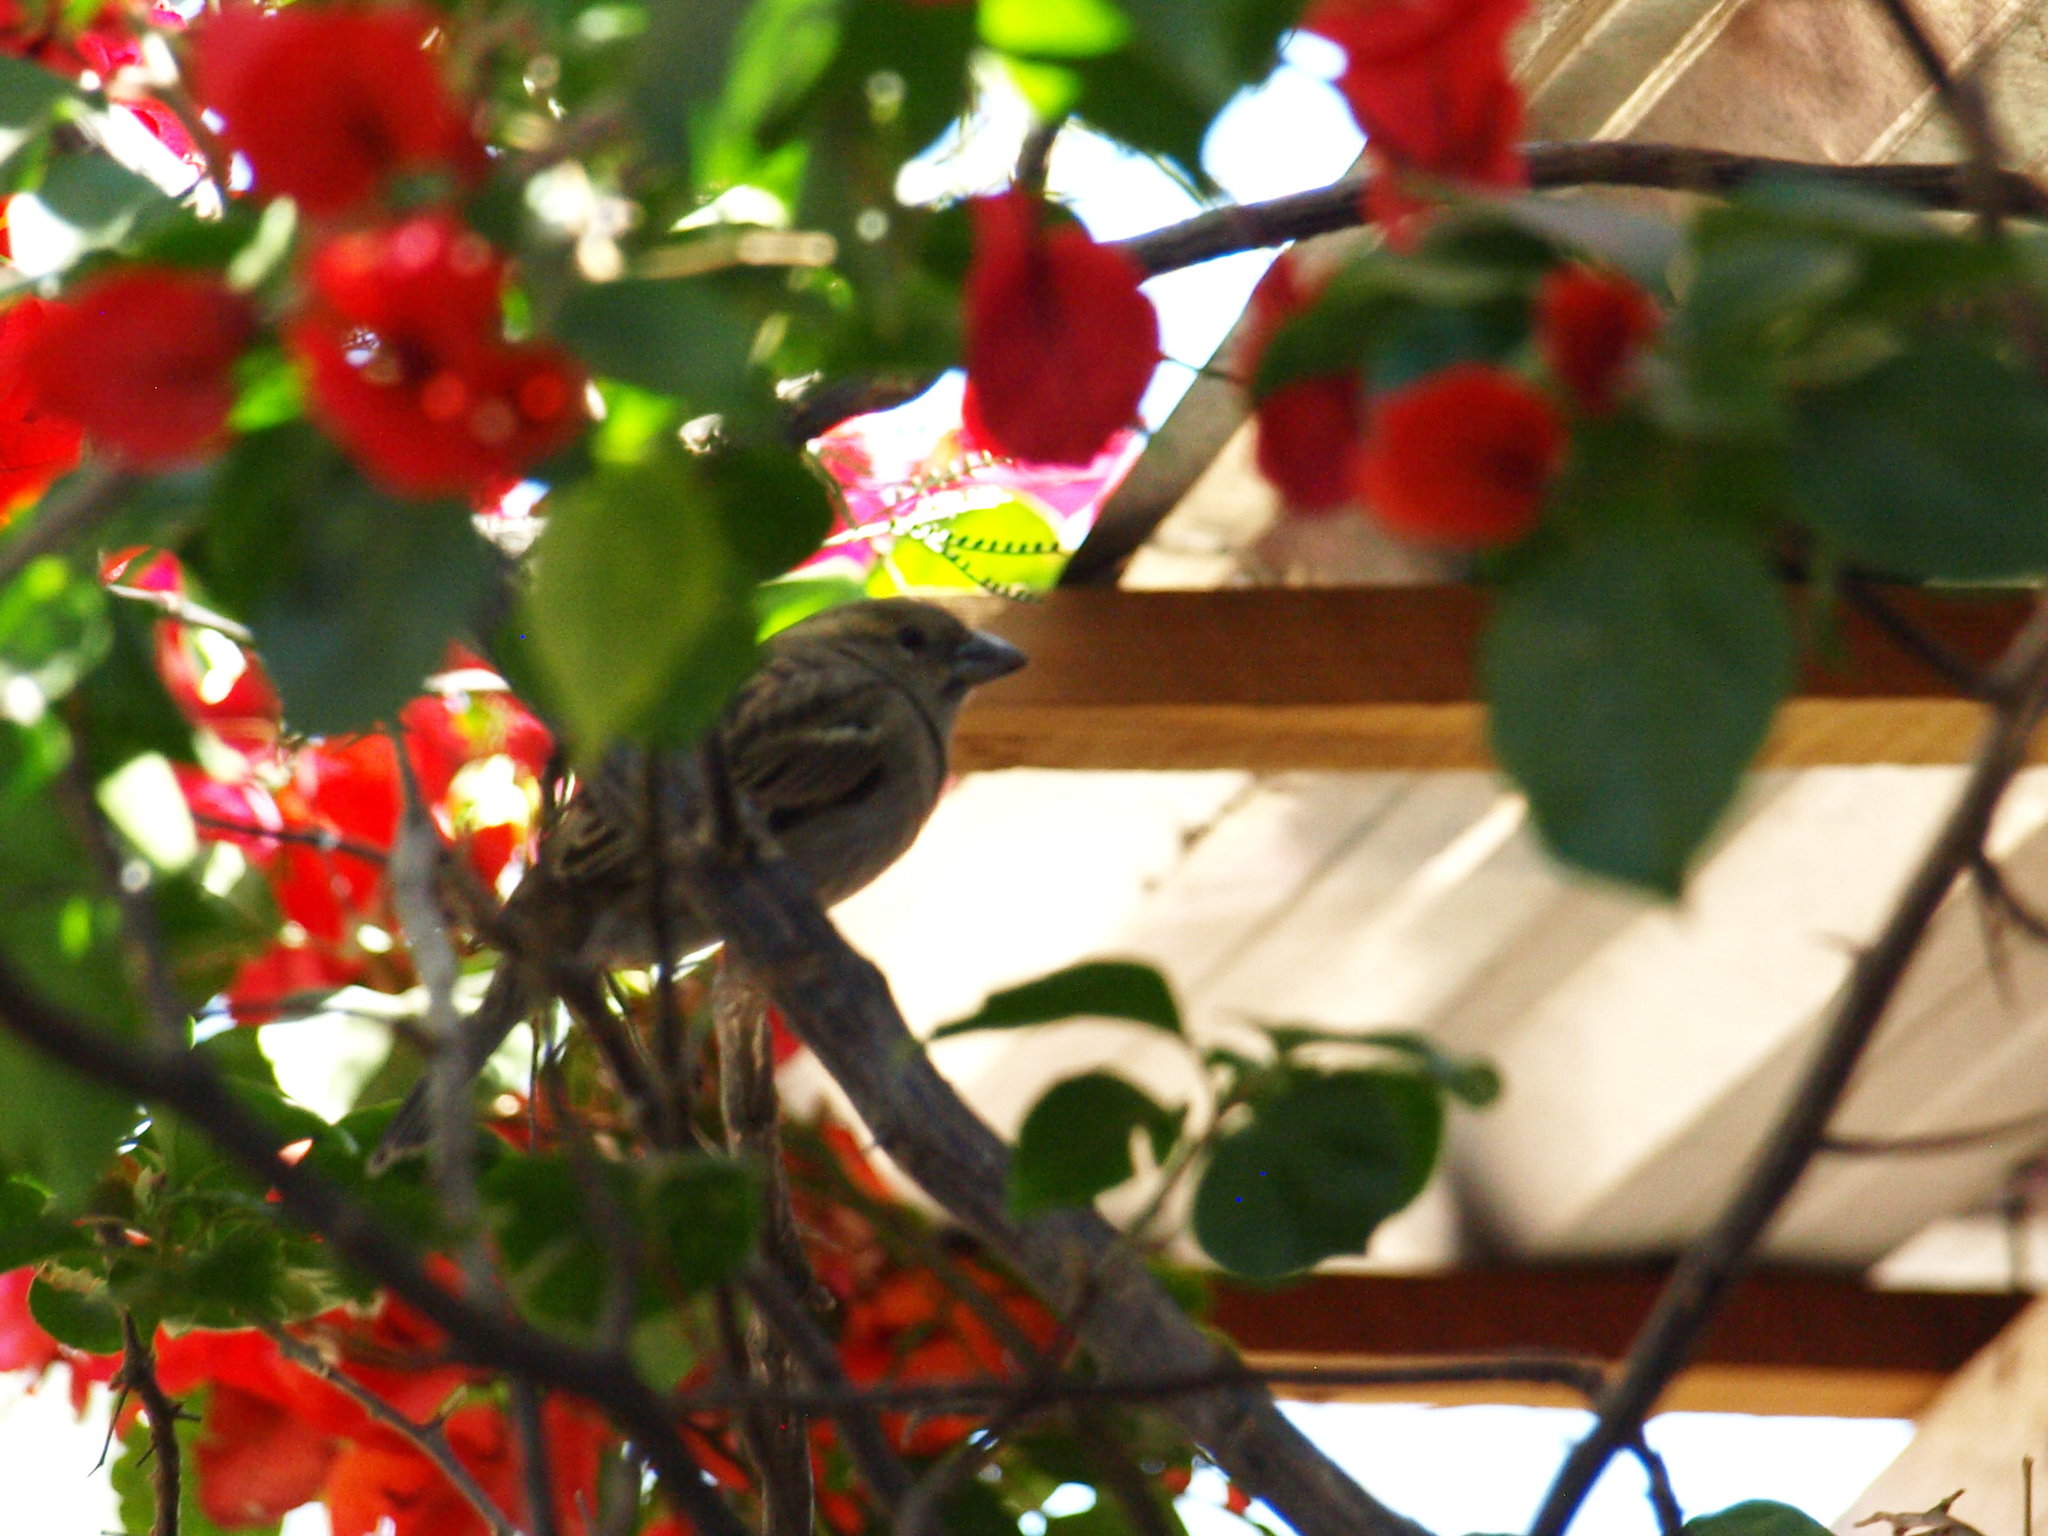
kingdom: Animalia
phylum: Chordata
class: Aves
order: Passeriformes
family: Passeridae
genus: Passer
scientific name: Passer domesticus
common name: House sparrow
